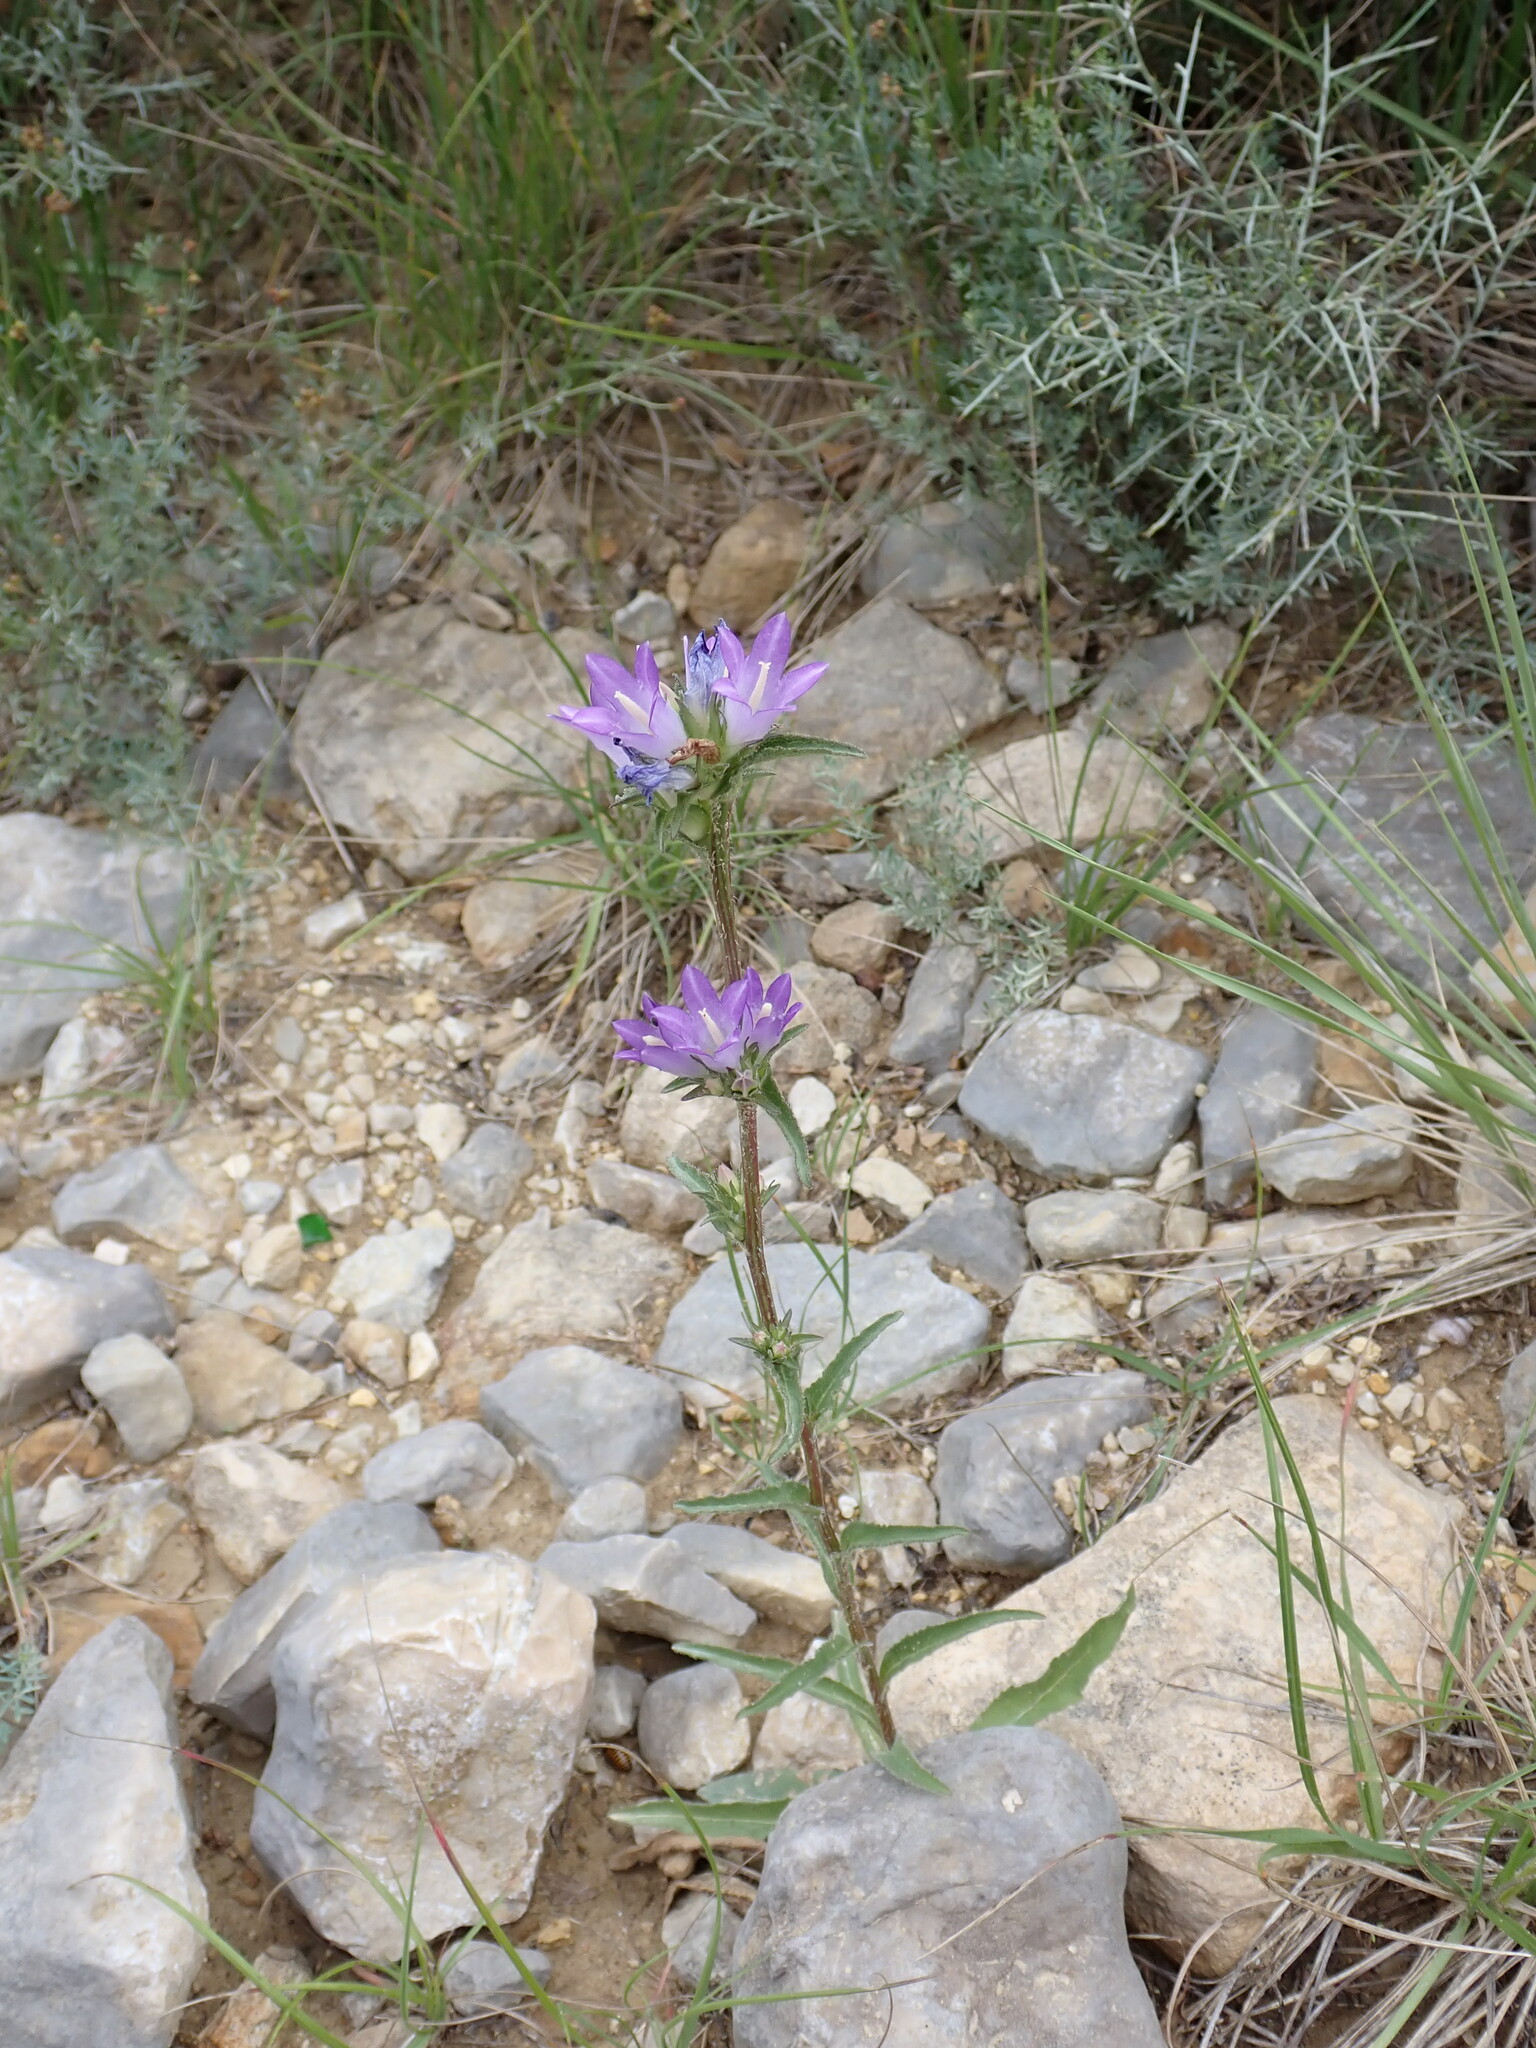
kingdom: Plantae
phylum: Tracheophyta
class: Magnoliopsida
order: Asterales
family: Campanulaceae
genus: Campanula
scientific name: Campanula glomerata
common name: Clustered bellflower
